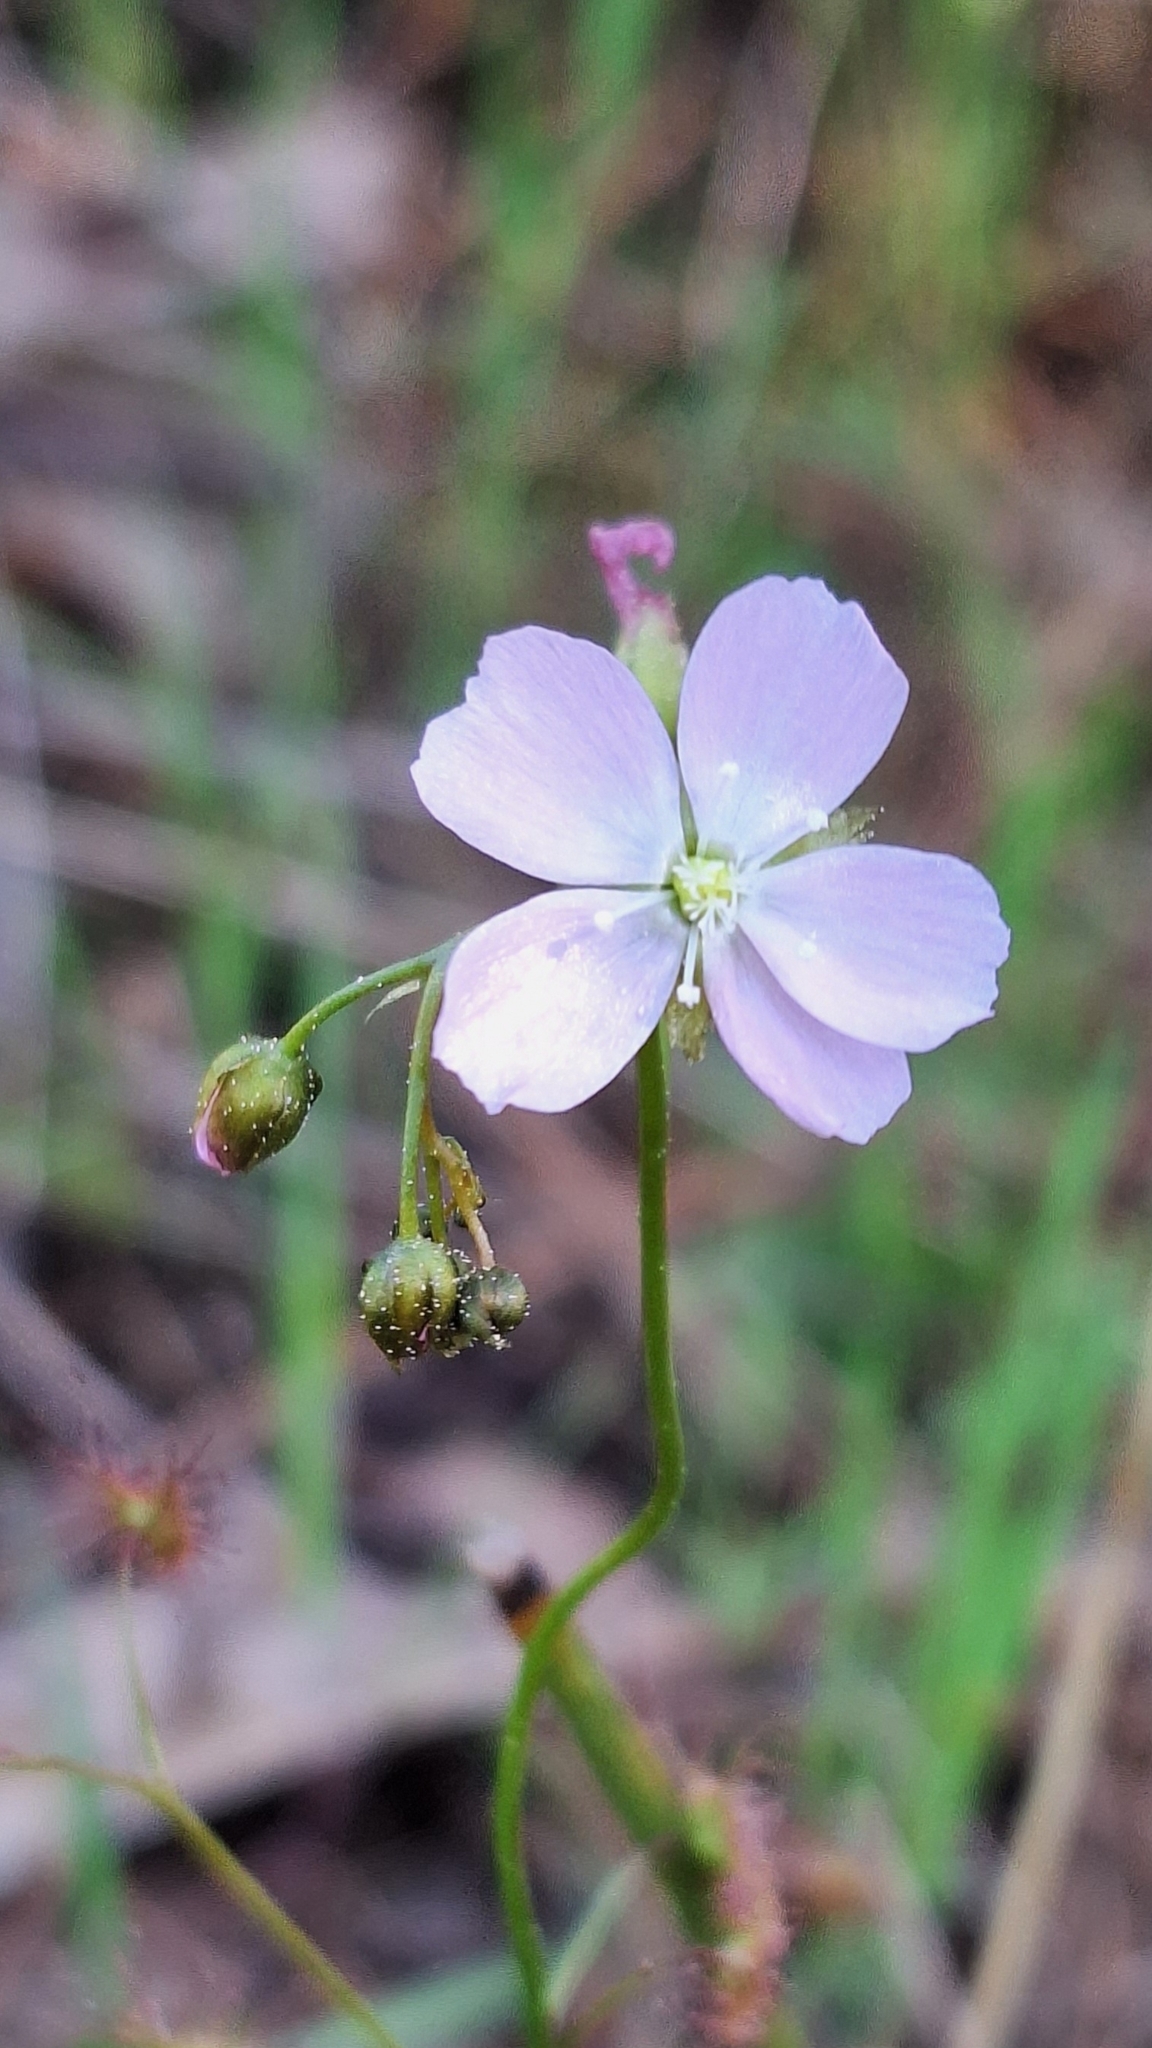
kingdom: Plantae
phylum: Tracheophyta
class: Magnoliopsida
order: Caryophyllales
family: Droseraceae
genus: Drosera
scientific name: Drosera peltata
